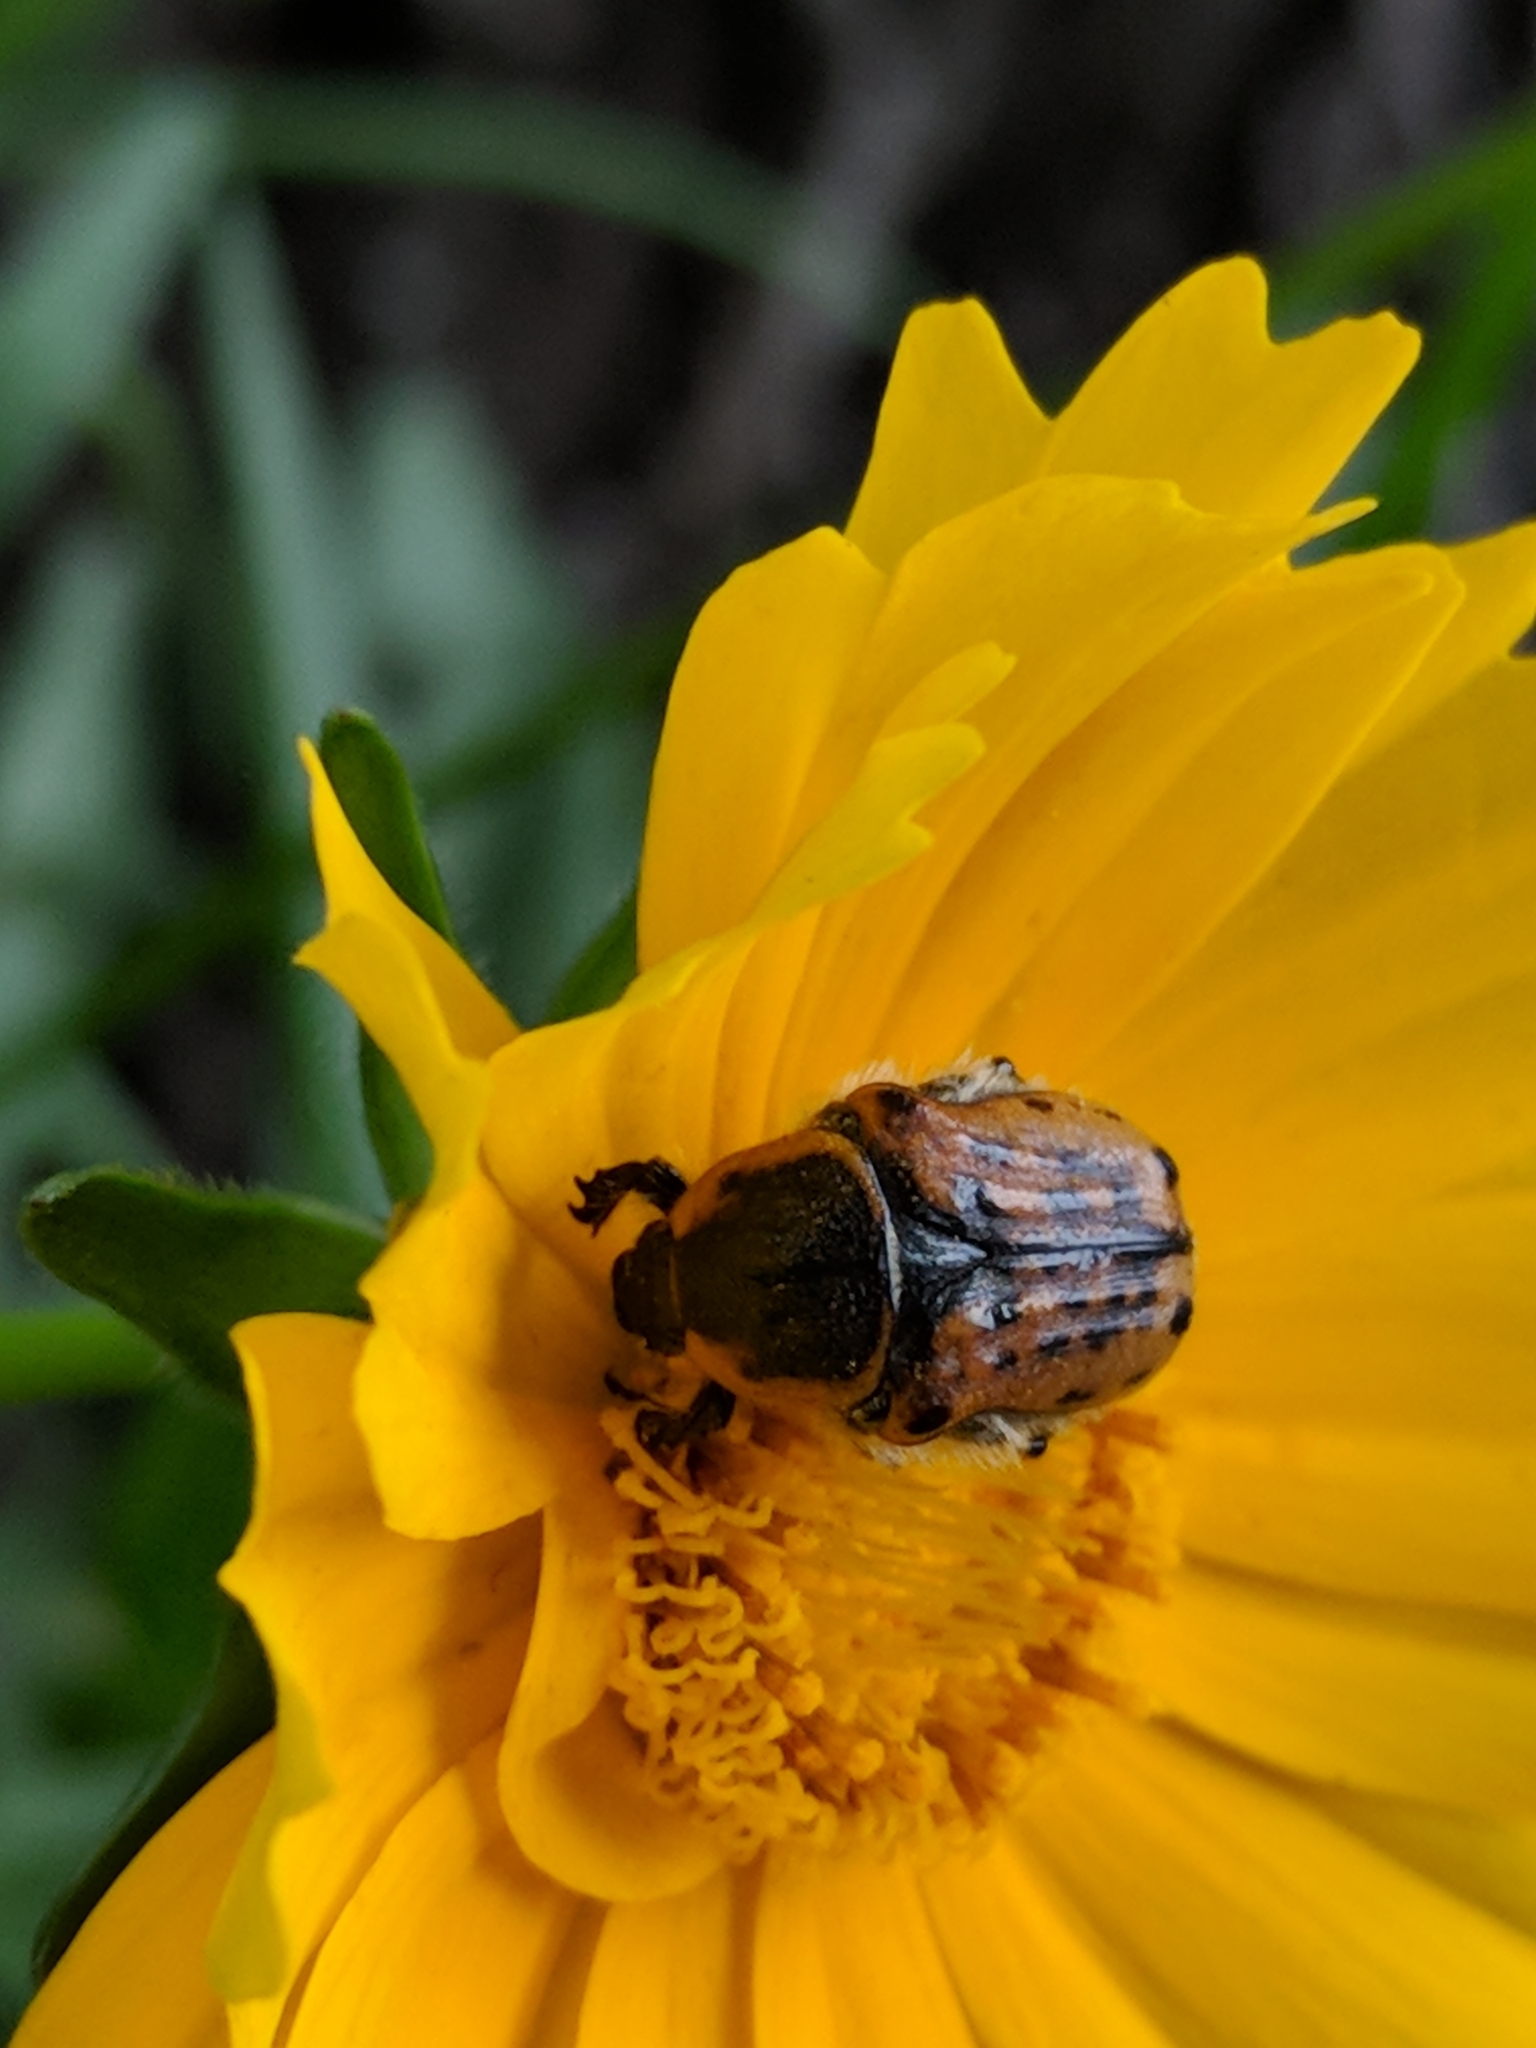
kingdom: Animalia
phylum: Arthropoda
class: Insecta
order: Coleoptera
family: Scarabaeidae
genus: Euphoria
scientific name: Euphoria kernii
